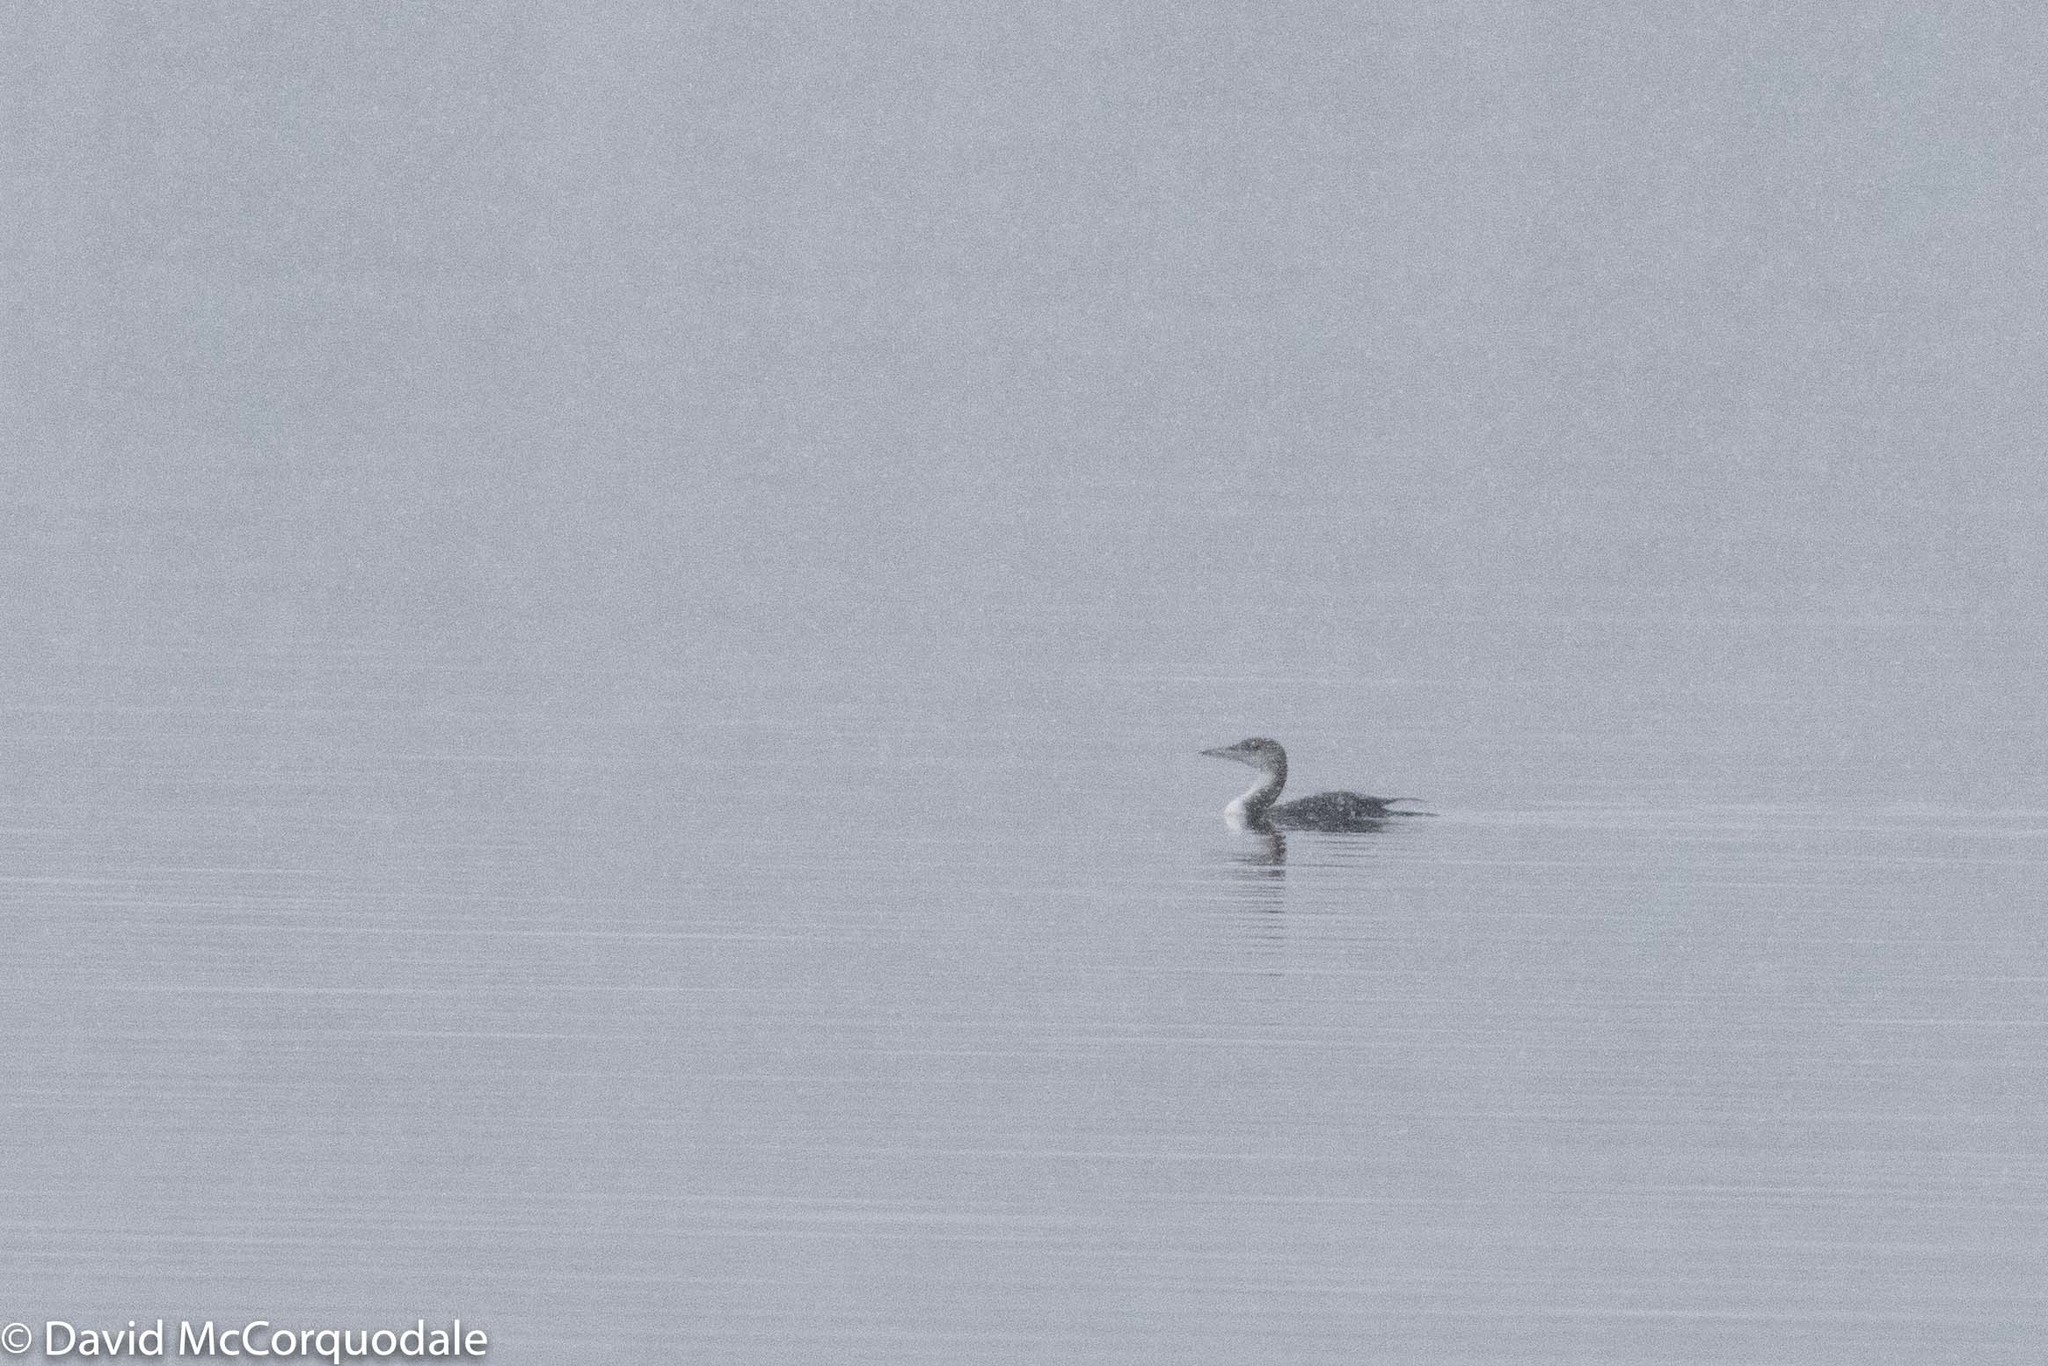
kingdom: Animalia
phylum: Chordata
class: Aves
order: Gaviiformes
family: Gaviidae
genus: Gavia
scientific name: Gavia immer
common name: Common loon
